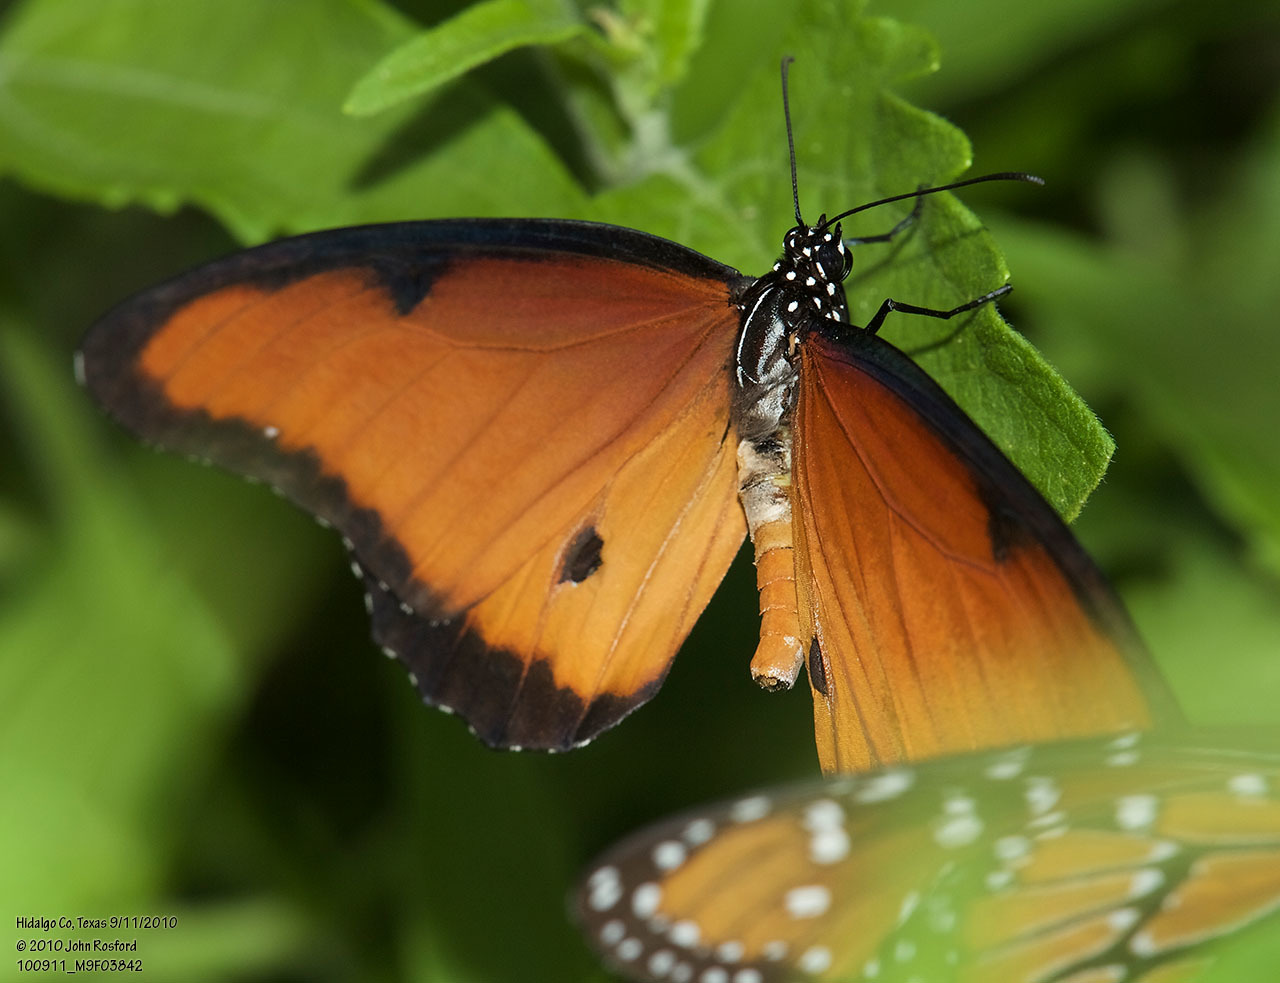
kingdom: Animalia
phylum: Arthropoda
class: Insecta
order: Lepidoptera
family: Nymphalidae
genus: Danaus
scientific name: Danaus gilippus
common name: Queen
